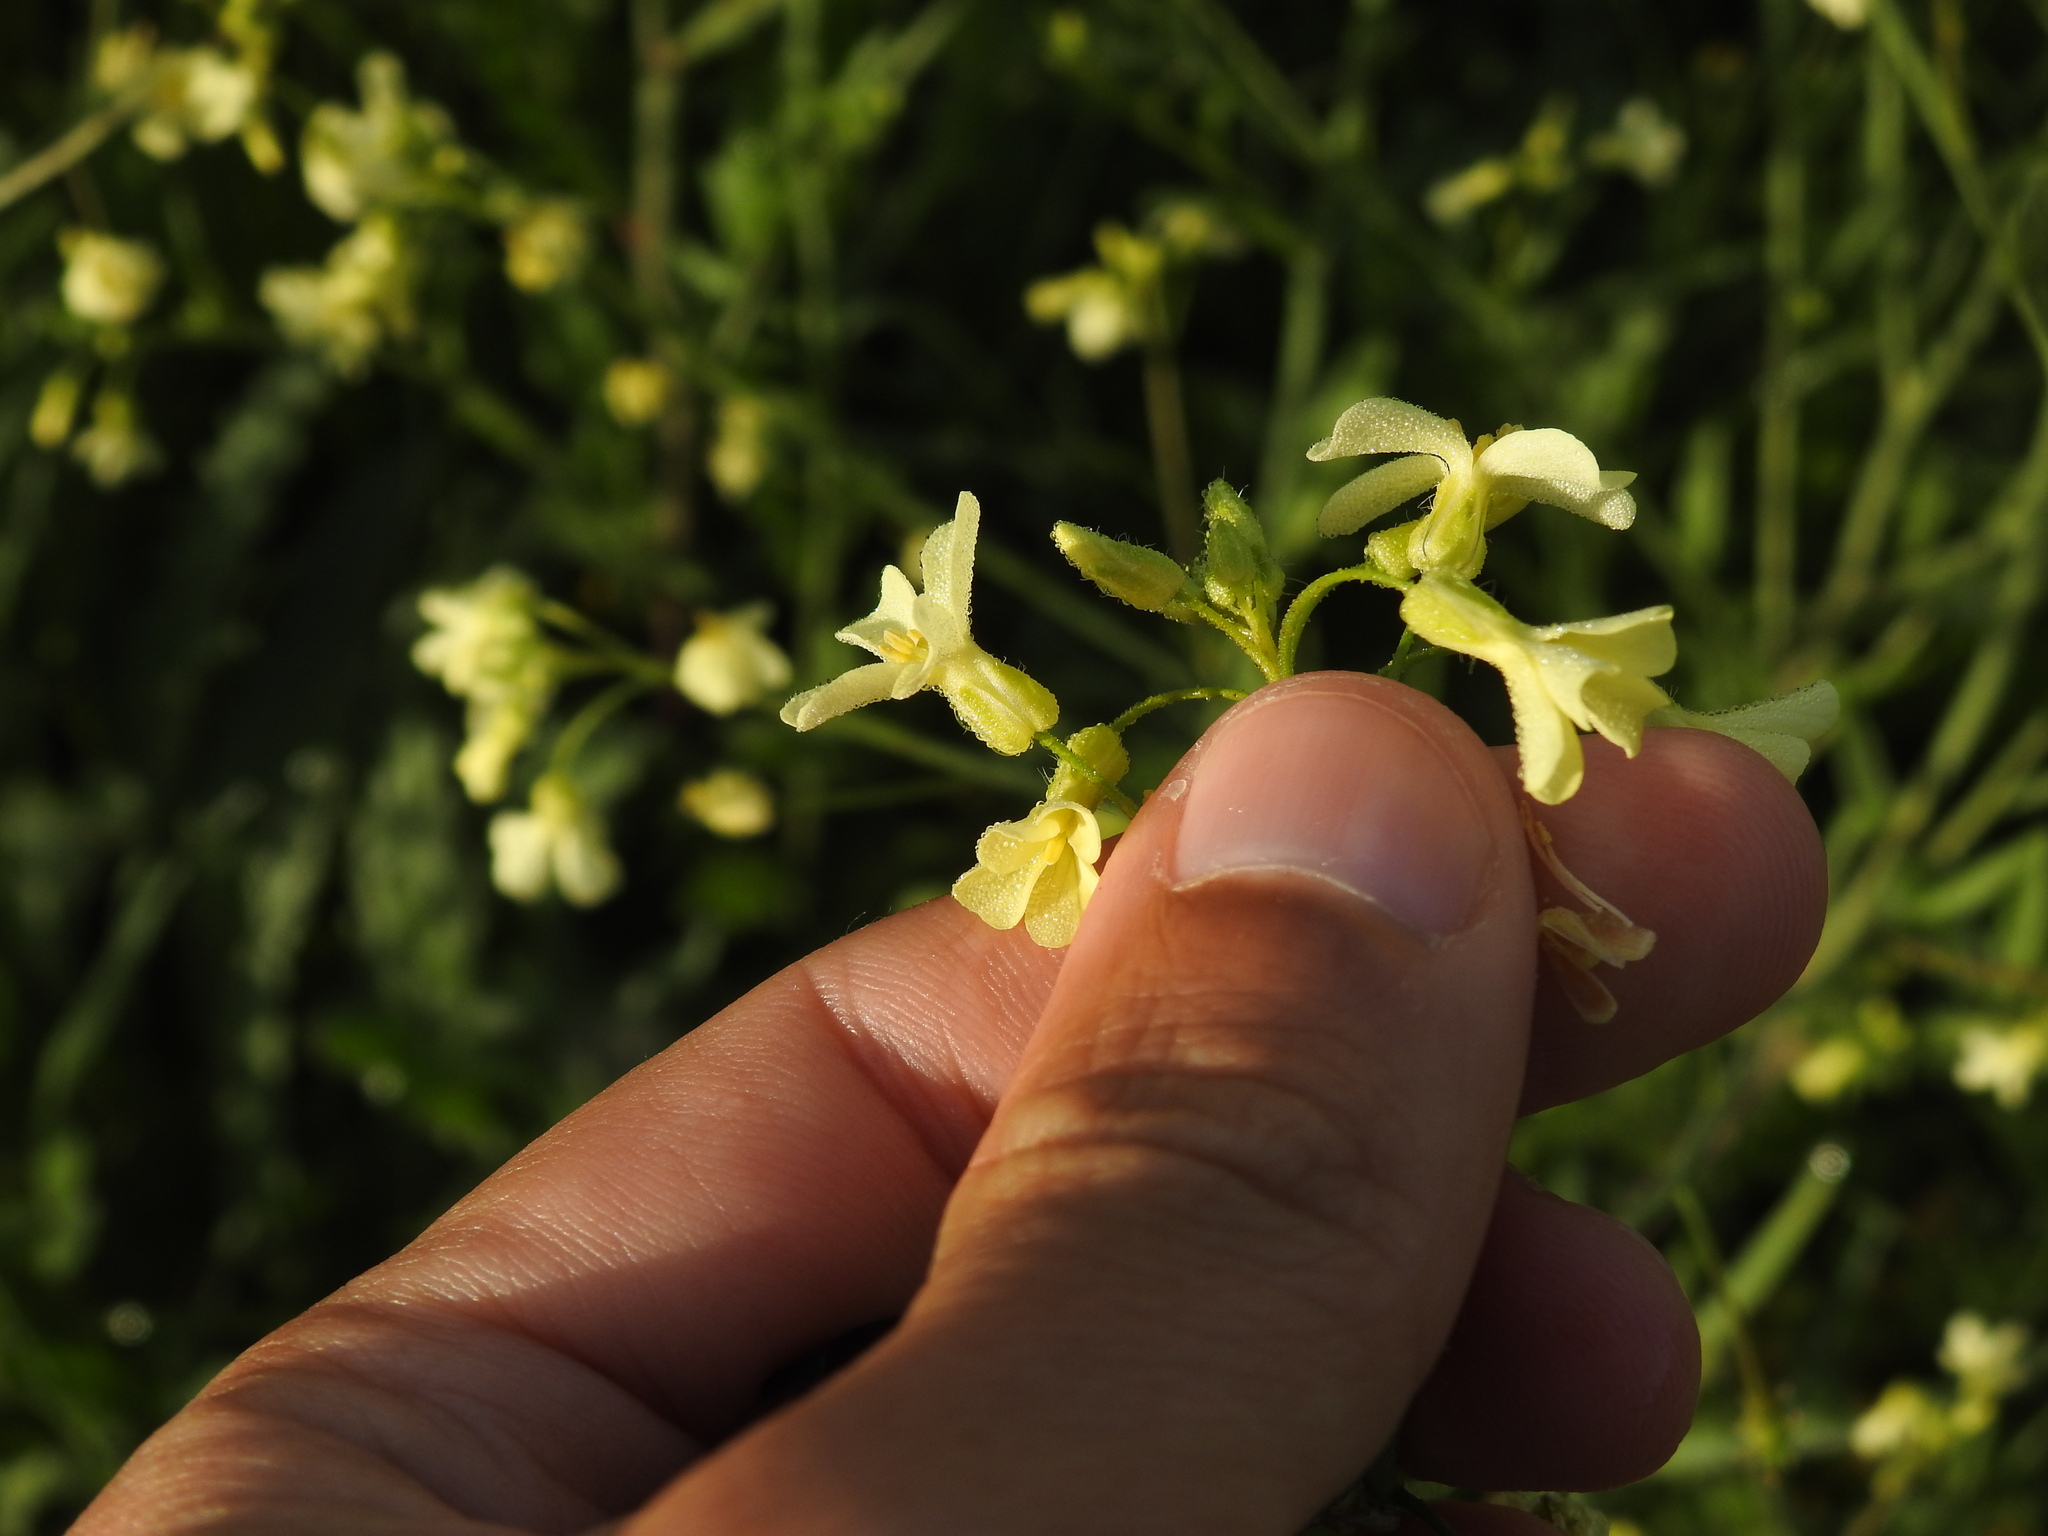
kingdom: Plantae
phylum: Tracheophyta
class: Magnoliopsida
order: Brassicales
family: Brassicaceae
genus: Bunias
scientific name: Bunias erucago
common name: Southern warty-cabbage
